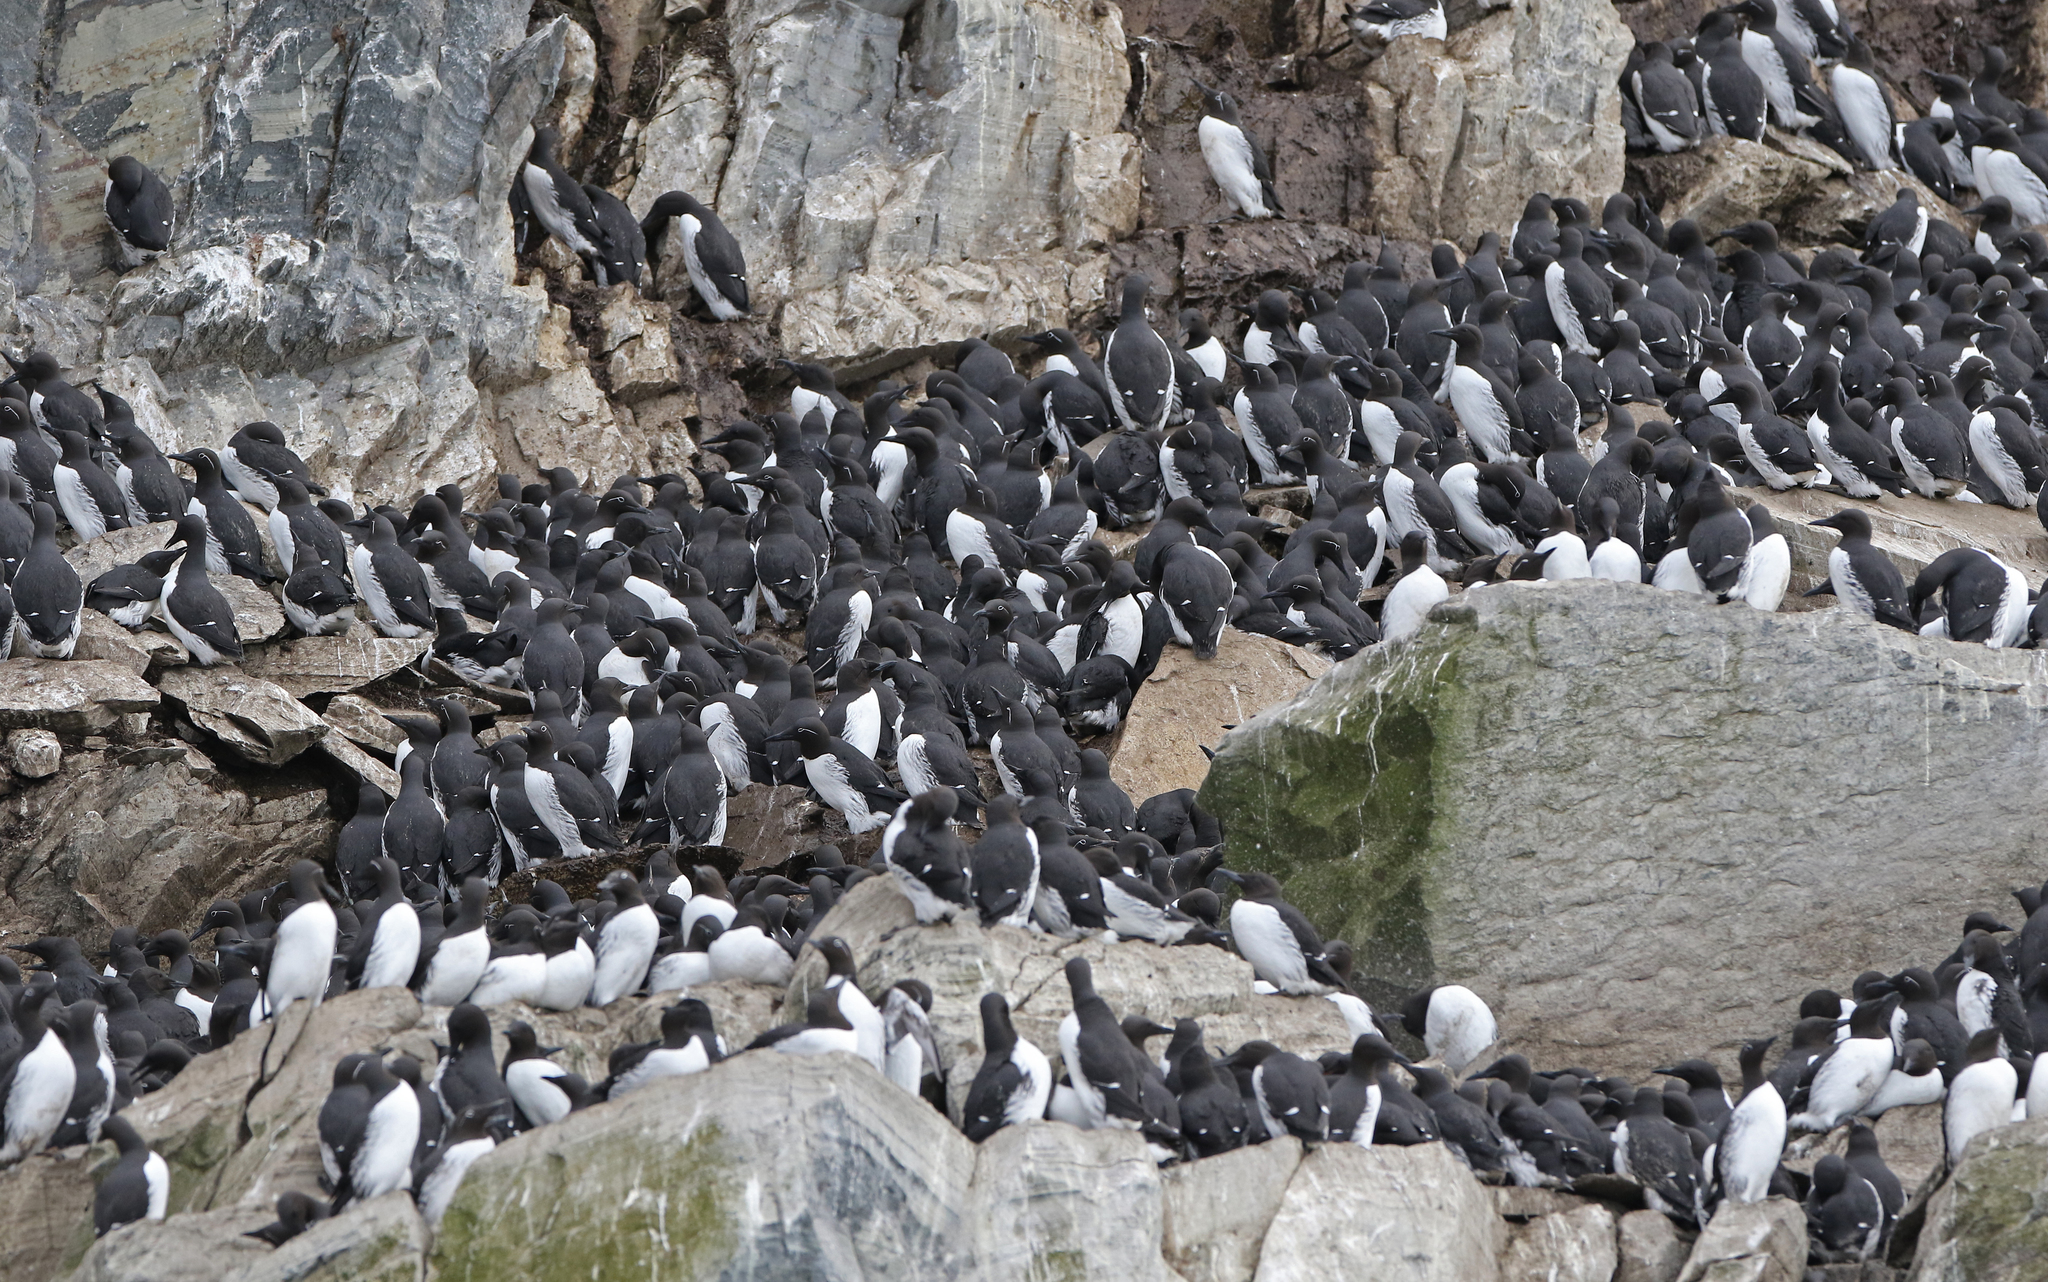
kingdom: Animalia
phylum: Chordata
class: Aves
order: Charadriiformes
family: Alcidae
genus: Uria
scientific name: Uria aalge
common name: Common murre
